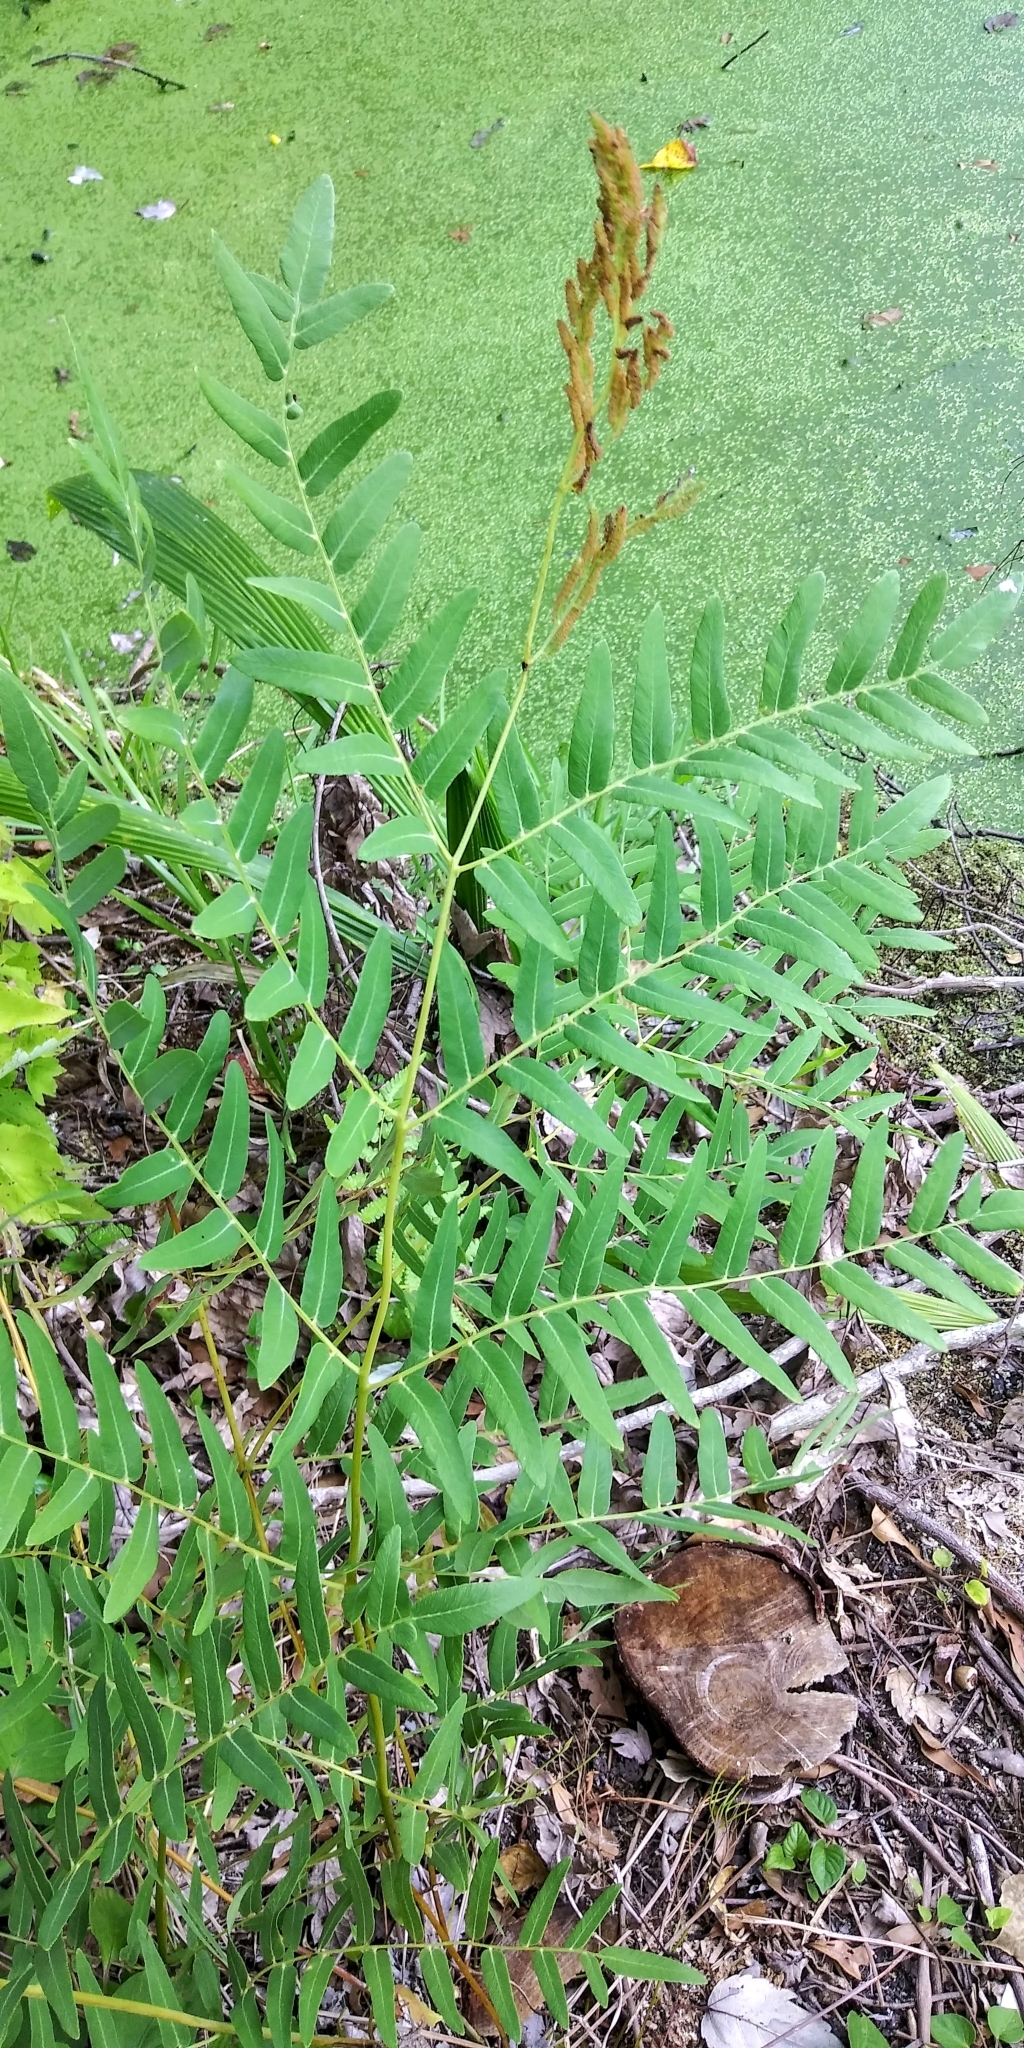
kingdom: Plantae
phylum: Tracheophyta
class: Polypodiopsida
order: Osmundales
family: Osmundaceae
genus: Osmunda
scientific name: Osmunda spectabilis
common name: American royal fern
